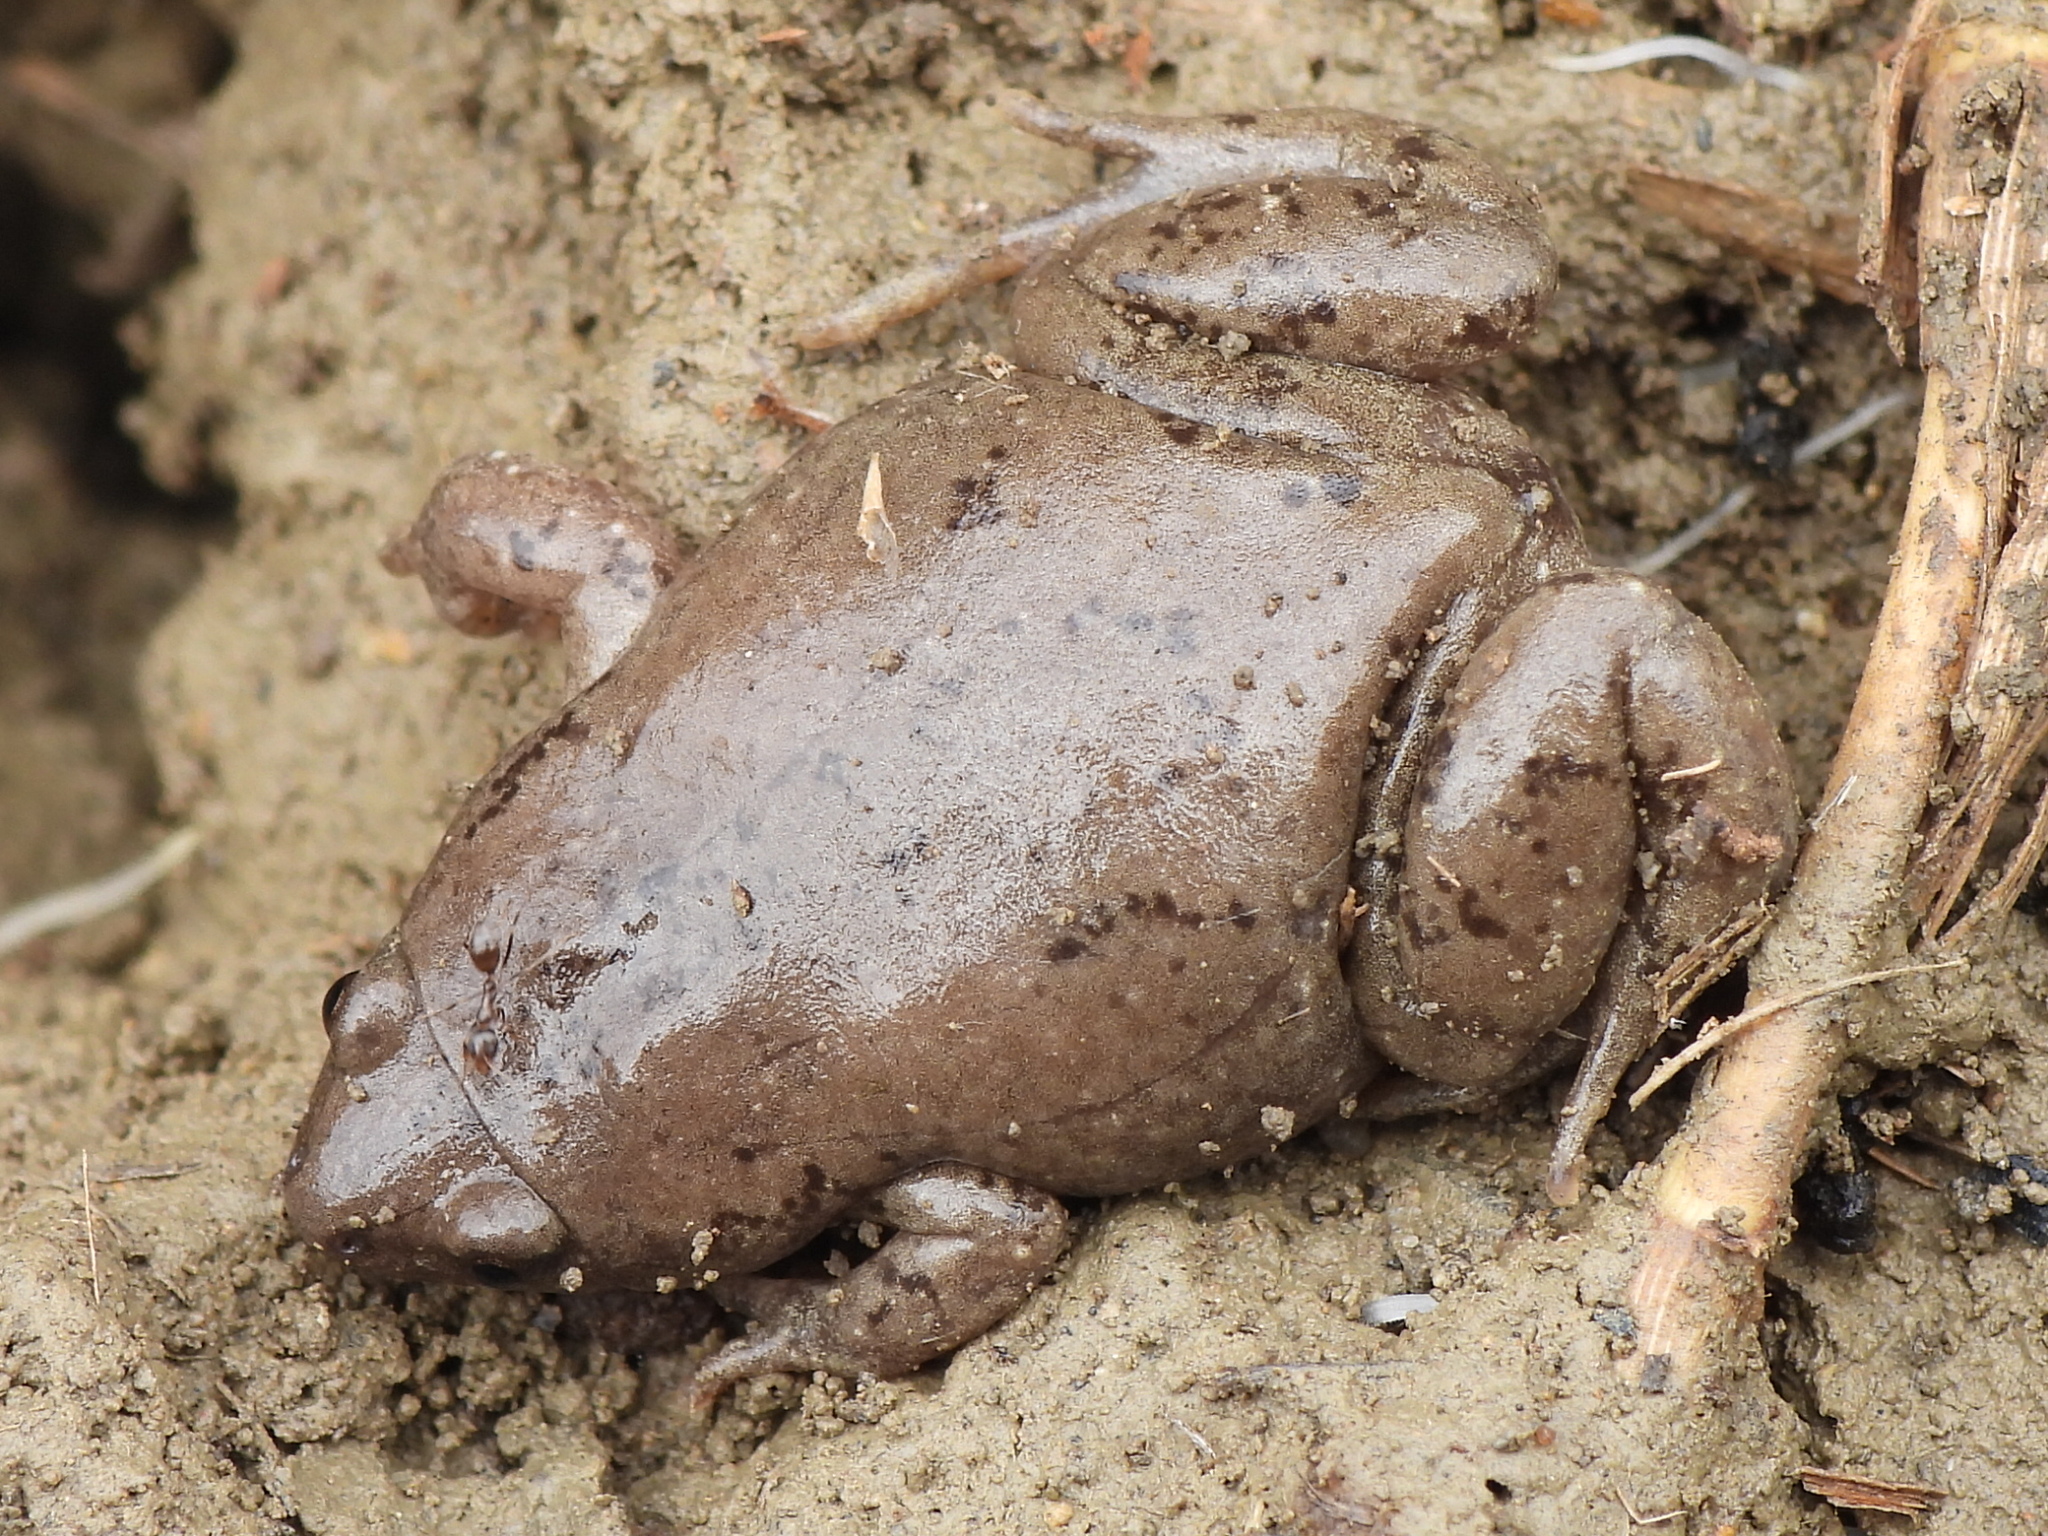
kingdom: Animalia
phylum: Chordata
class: Amphibia
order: Anura
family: Microhylidae
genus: Gastrophryne
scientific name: Gastrophryne olivacea
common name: Great plains narrow-mouthed toad
